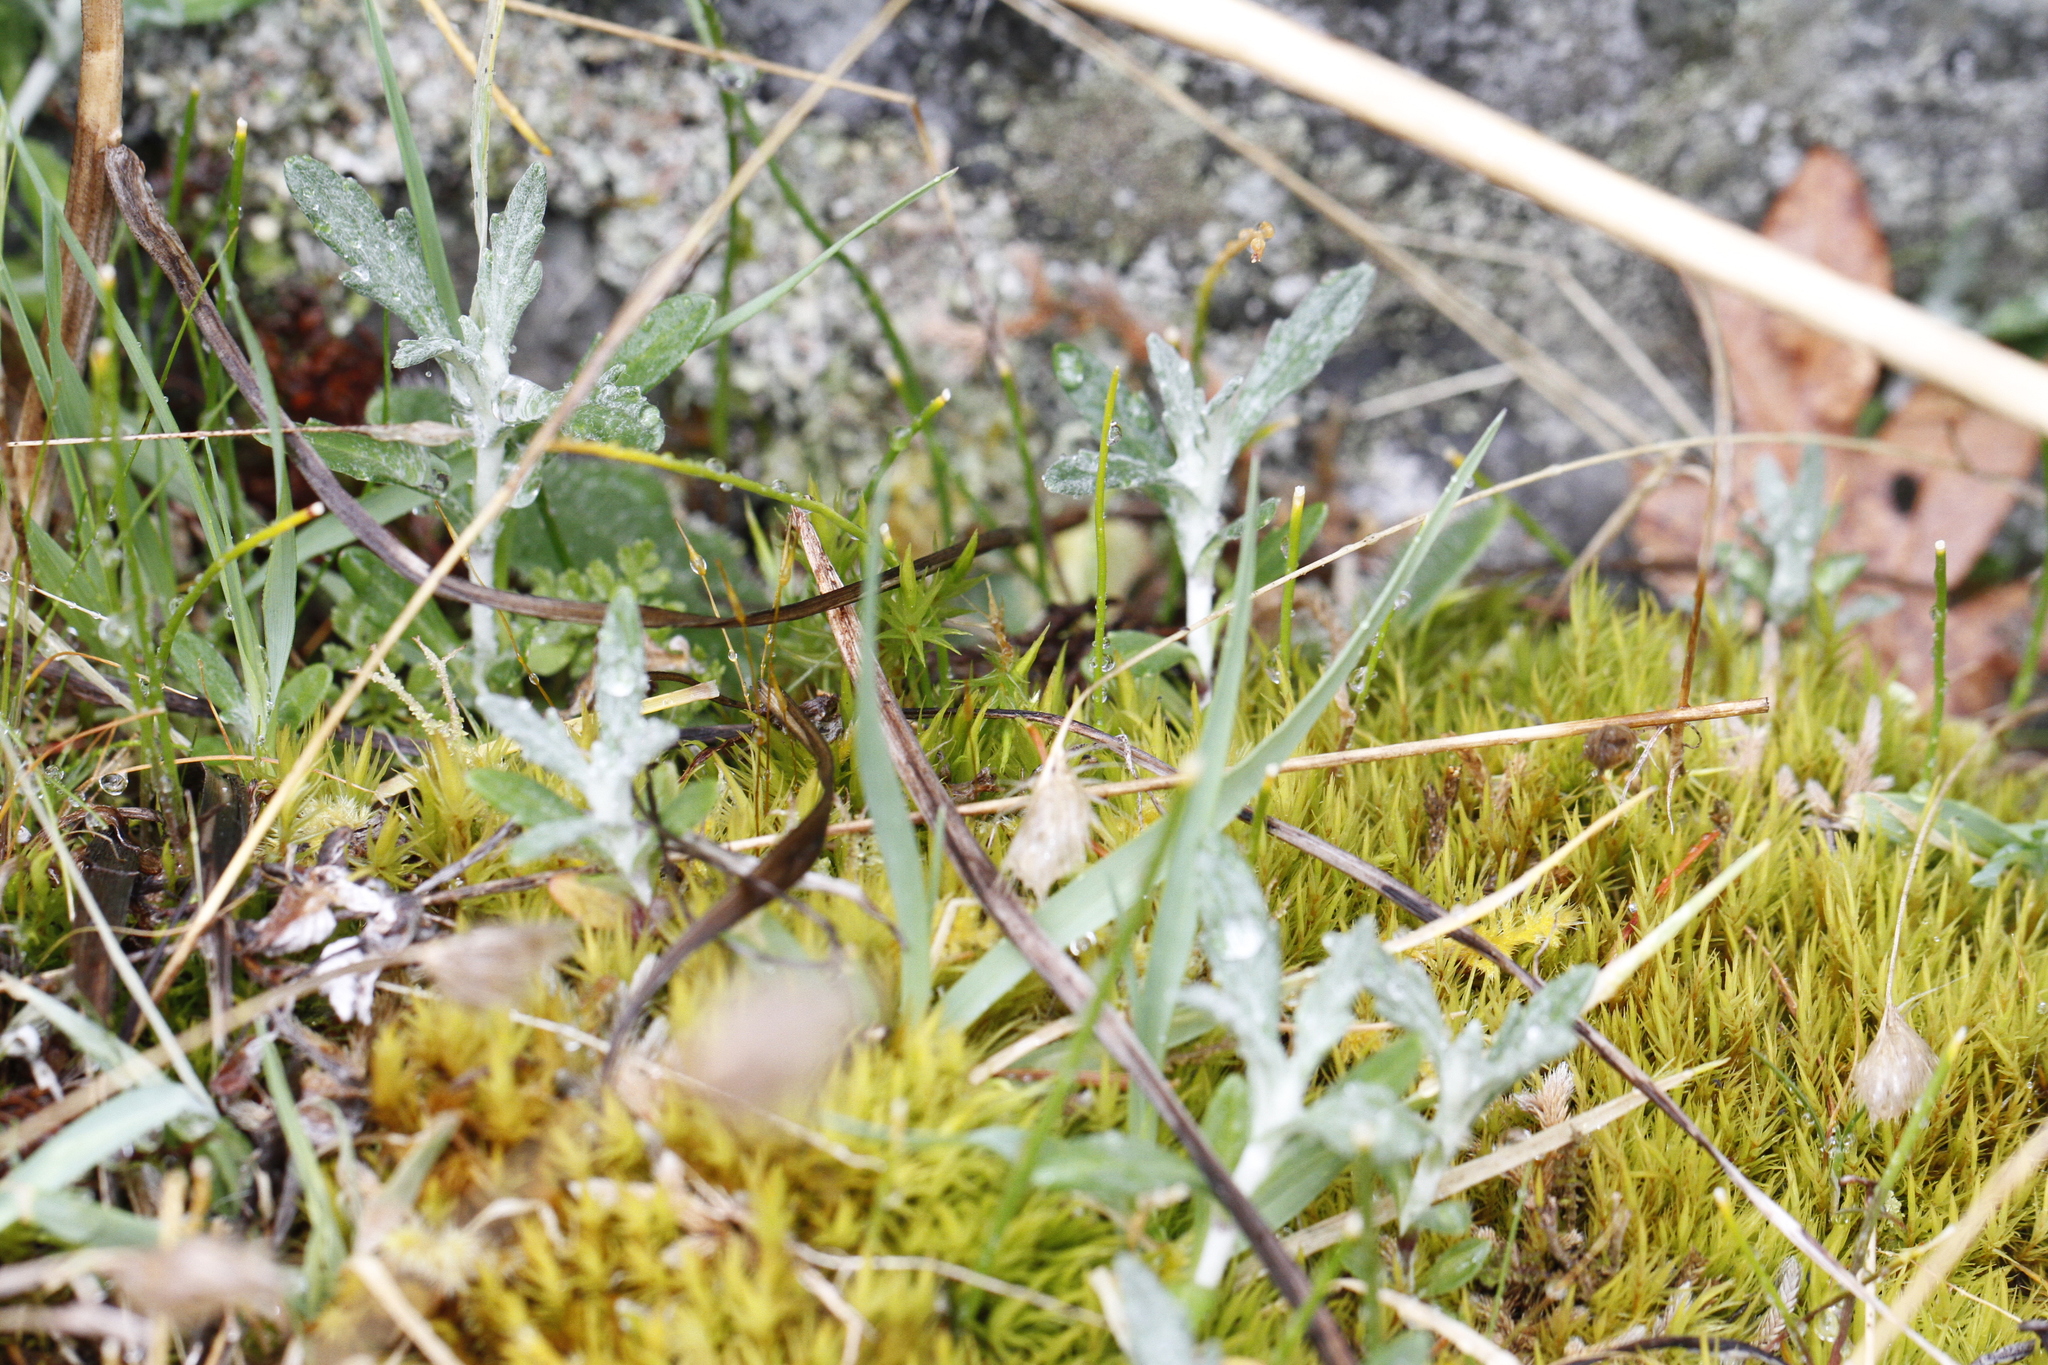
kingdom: Plantae
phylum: Tracheophyta
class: Magnoliopsida
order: Asterales
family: Asteraceae
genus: Eriophyllum
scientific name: Eriophyllum lanatum
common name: Common woolly-sunflower
